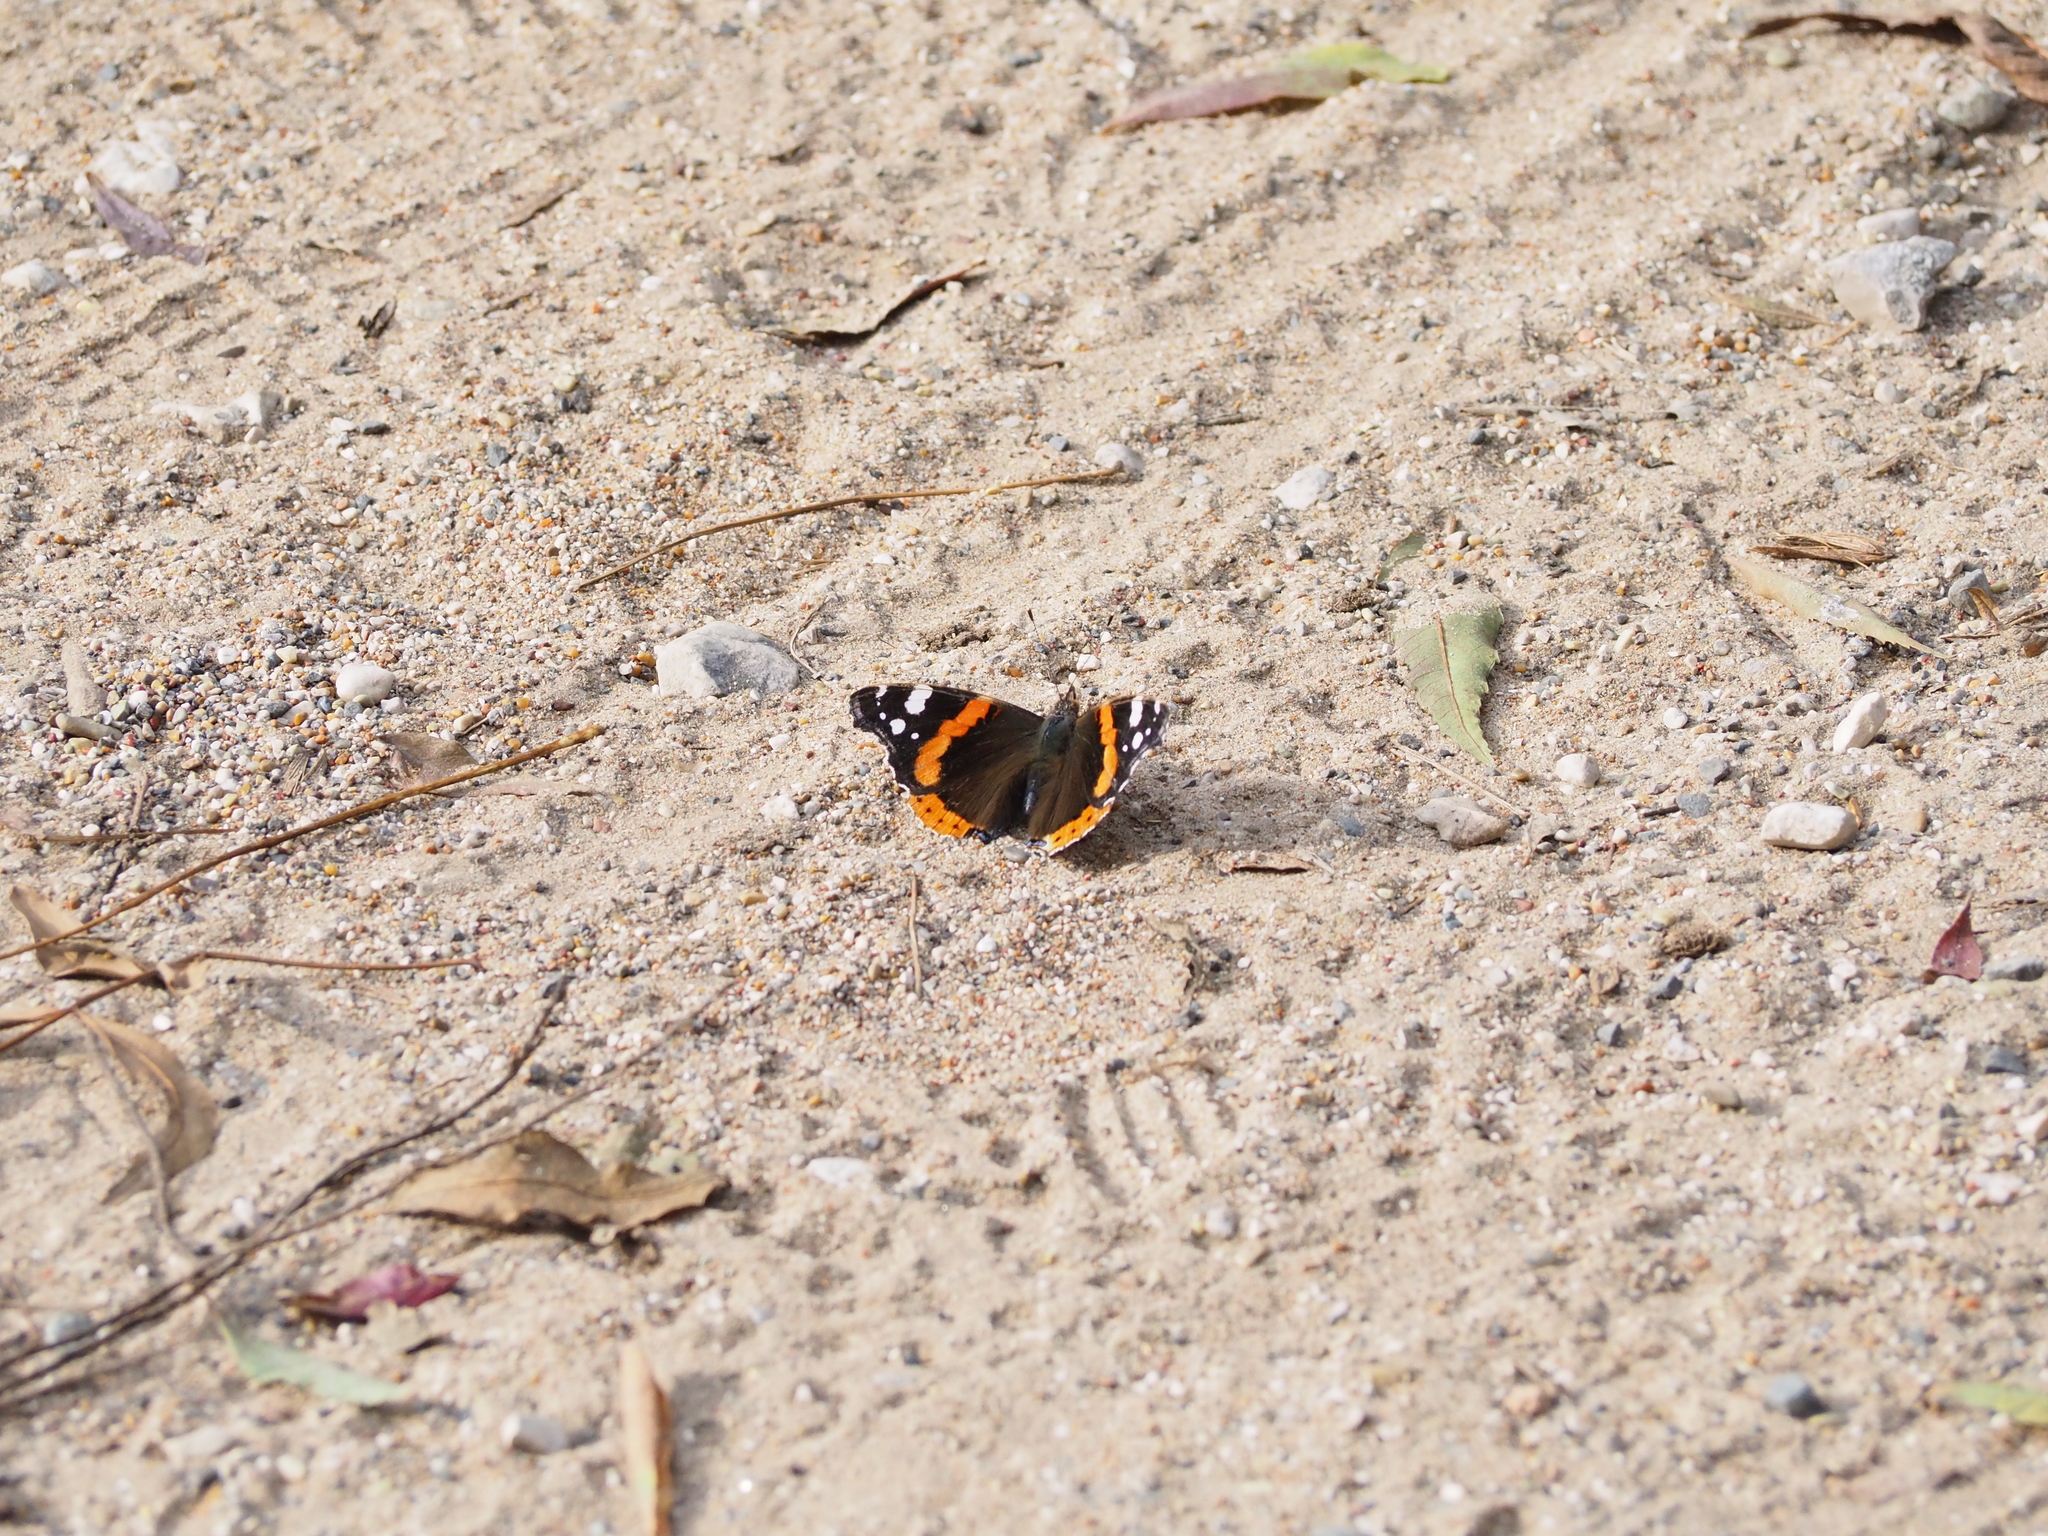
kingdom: Animalia
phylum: Arthropoda
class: Insecta
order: Lepidoptera
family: Nymphalidae
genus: Vanessa
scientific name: Vanessa atalanta
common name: Red admiral
